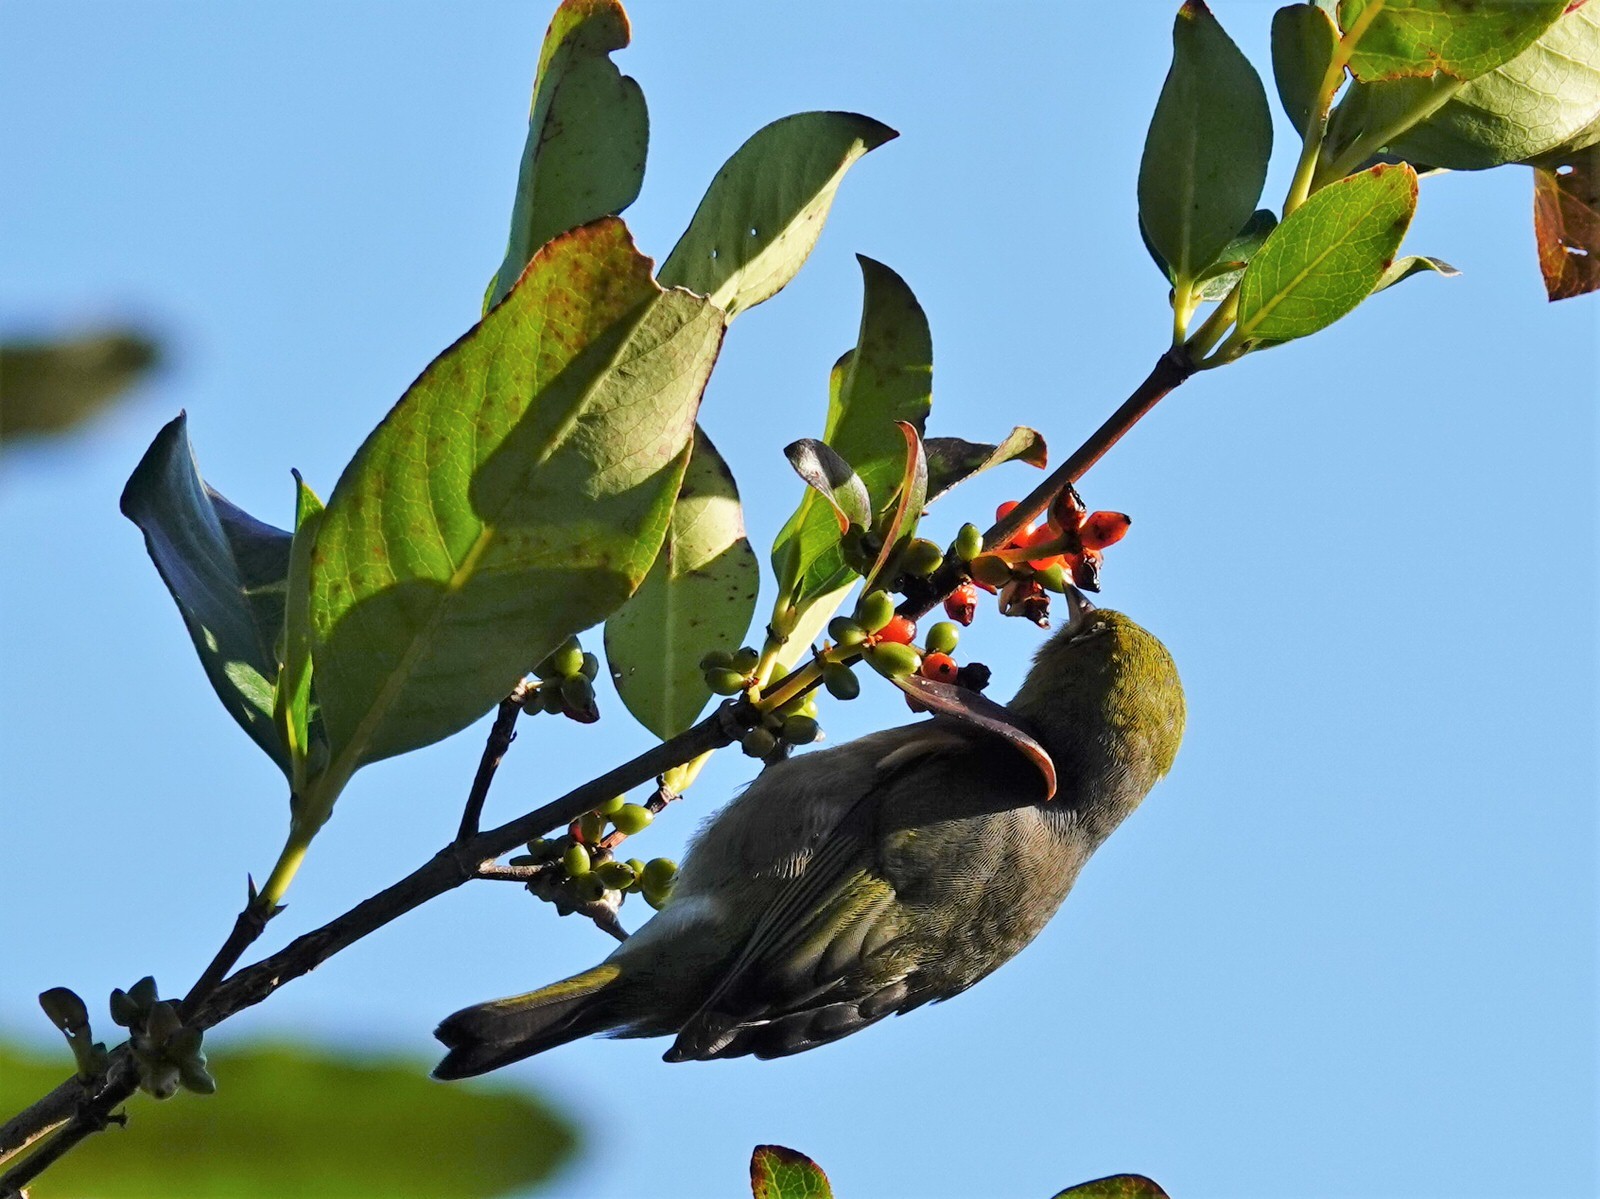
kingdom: Animalia
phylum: Chordata
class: Aves
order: Passeriformes
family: Zosteropidae
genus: Zosterops
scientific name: Zosterops lateralis
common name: Silvereye
